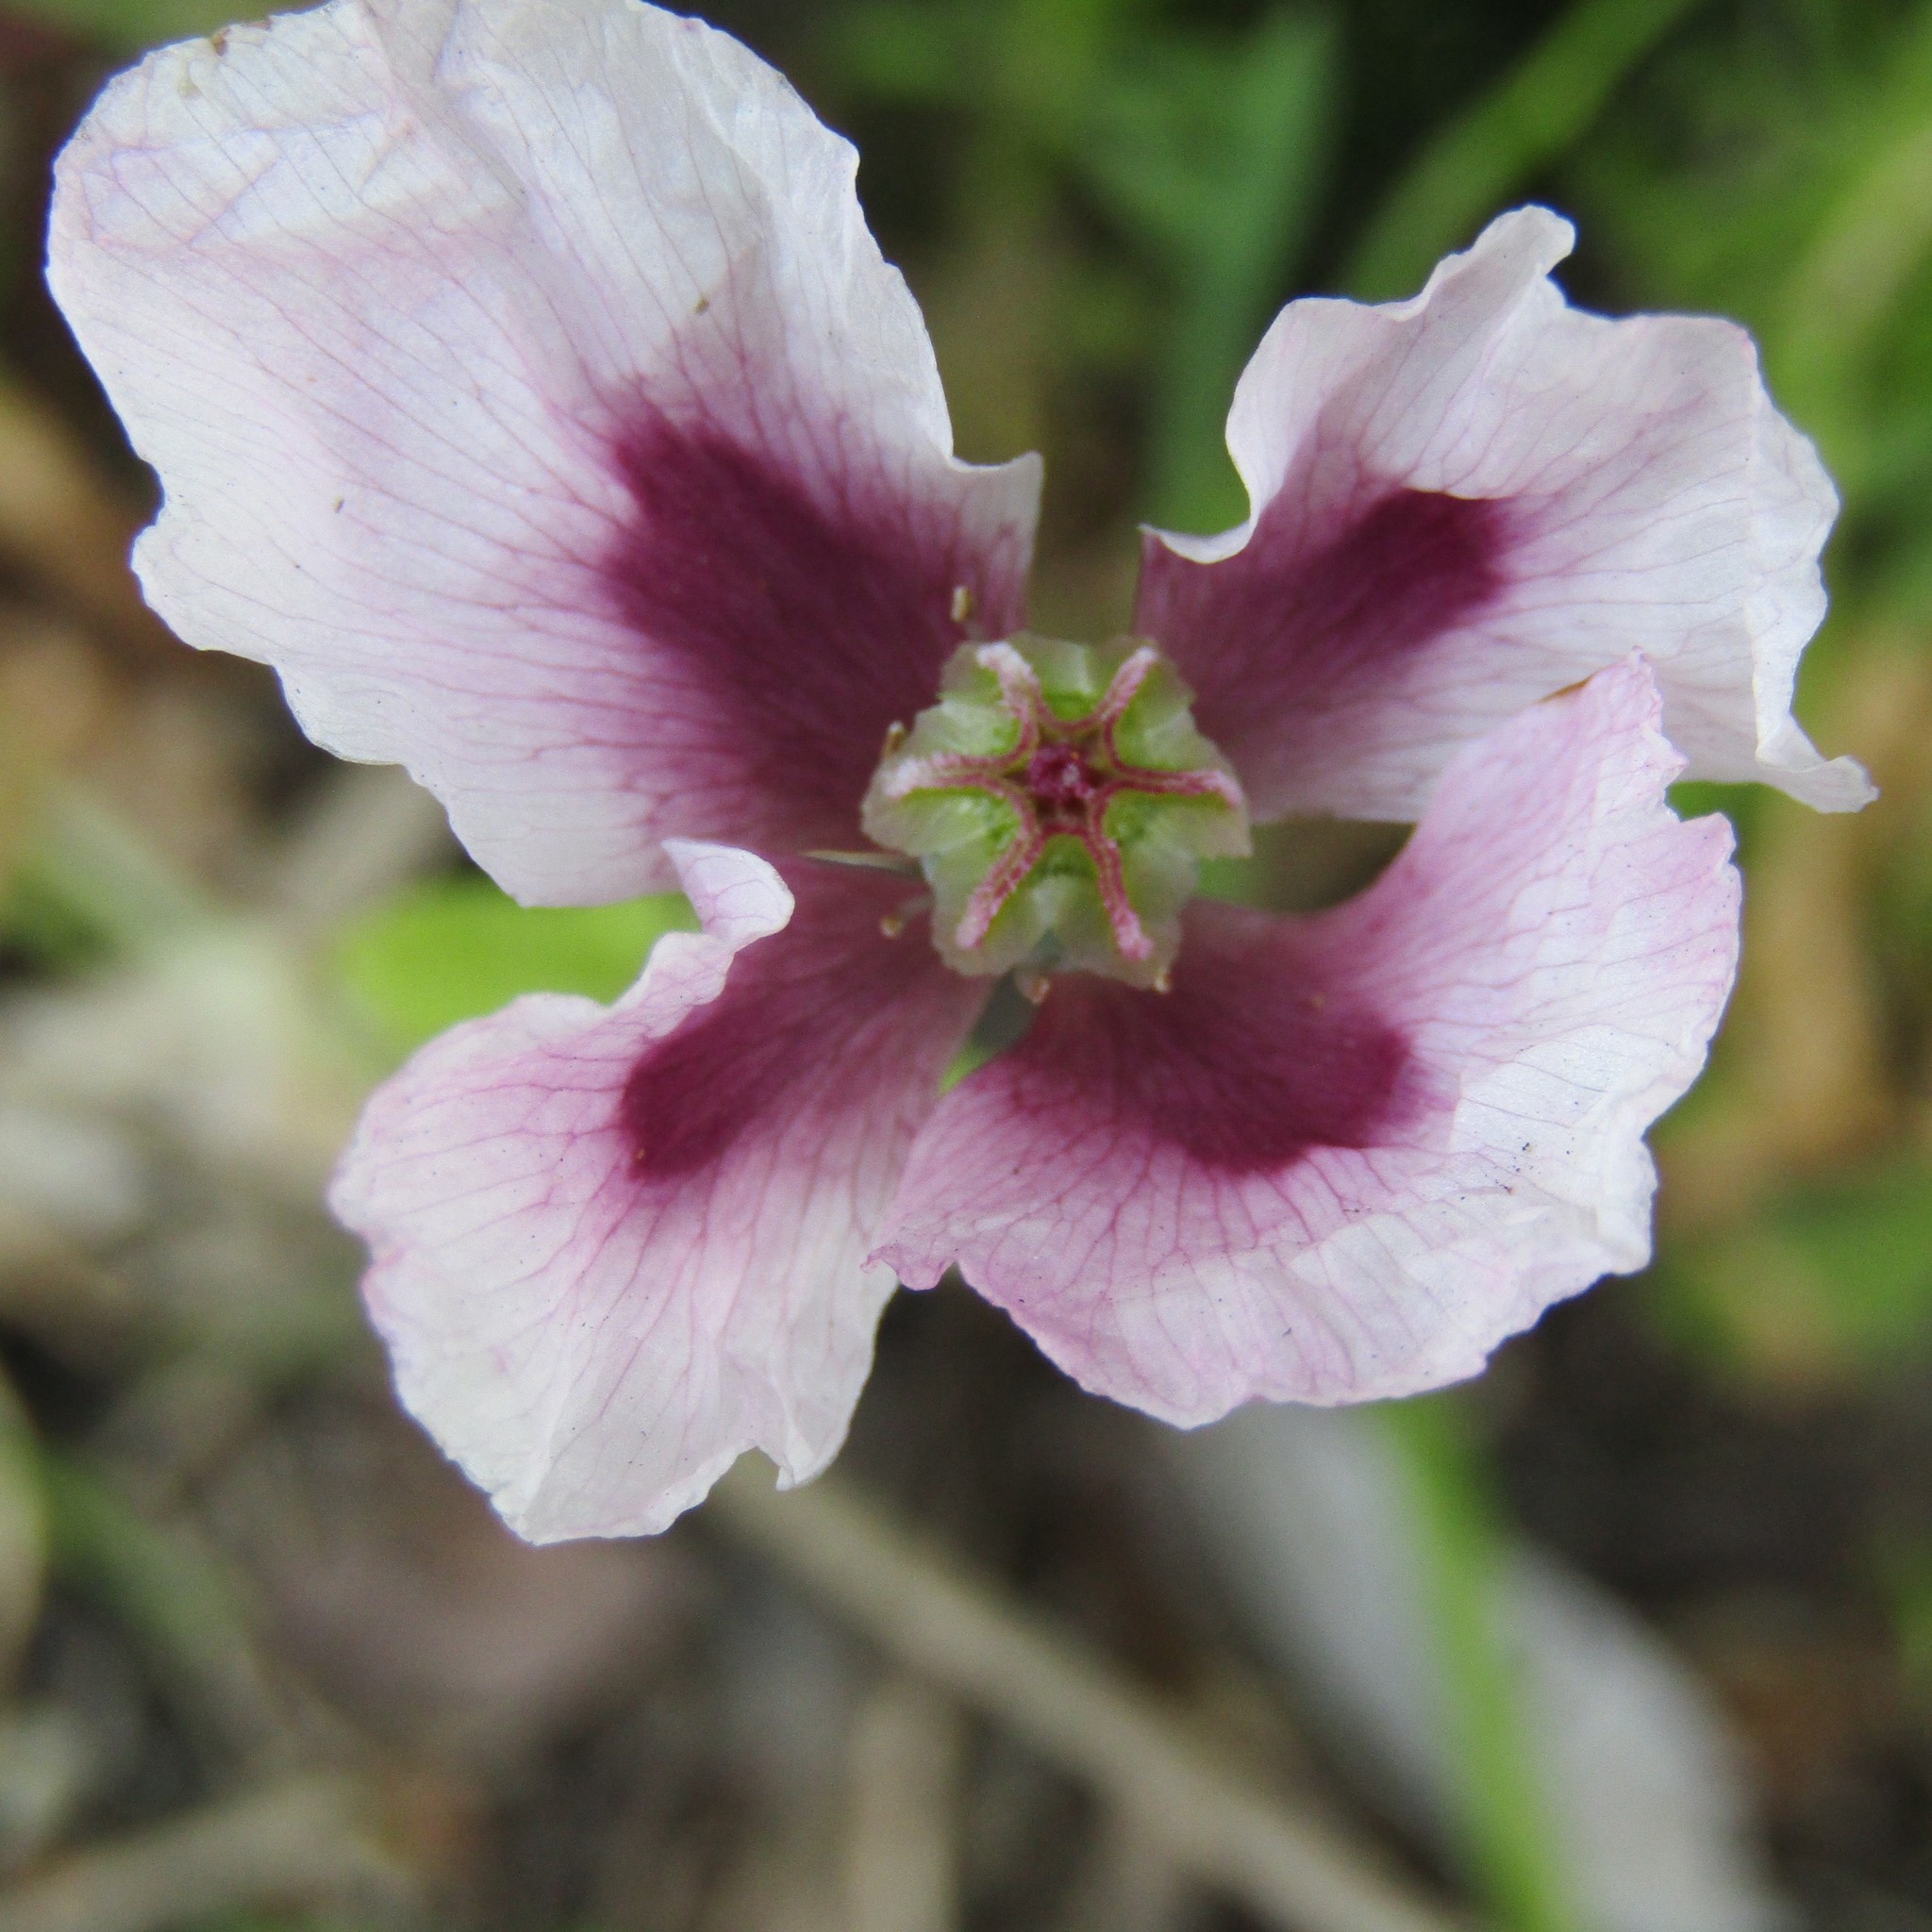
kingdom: Plantae
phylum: Tracheophyta
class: Magnoliopsida
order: Ranunculales
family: Papaveraceae
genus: Papaver
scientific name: Papaver somniferum
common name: Opium poppy
